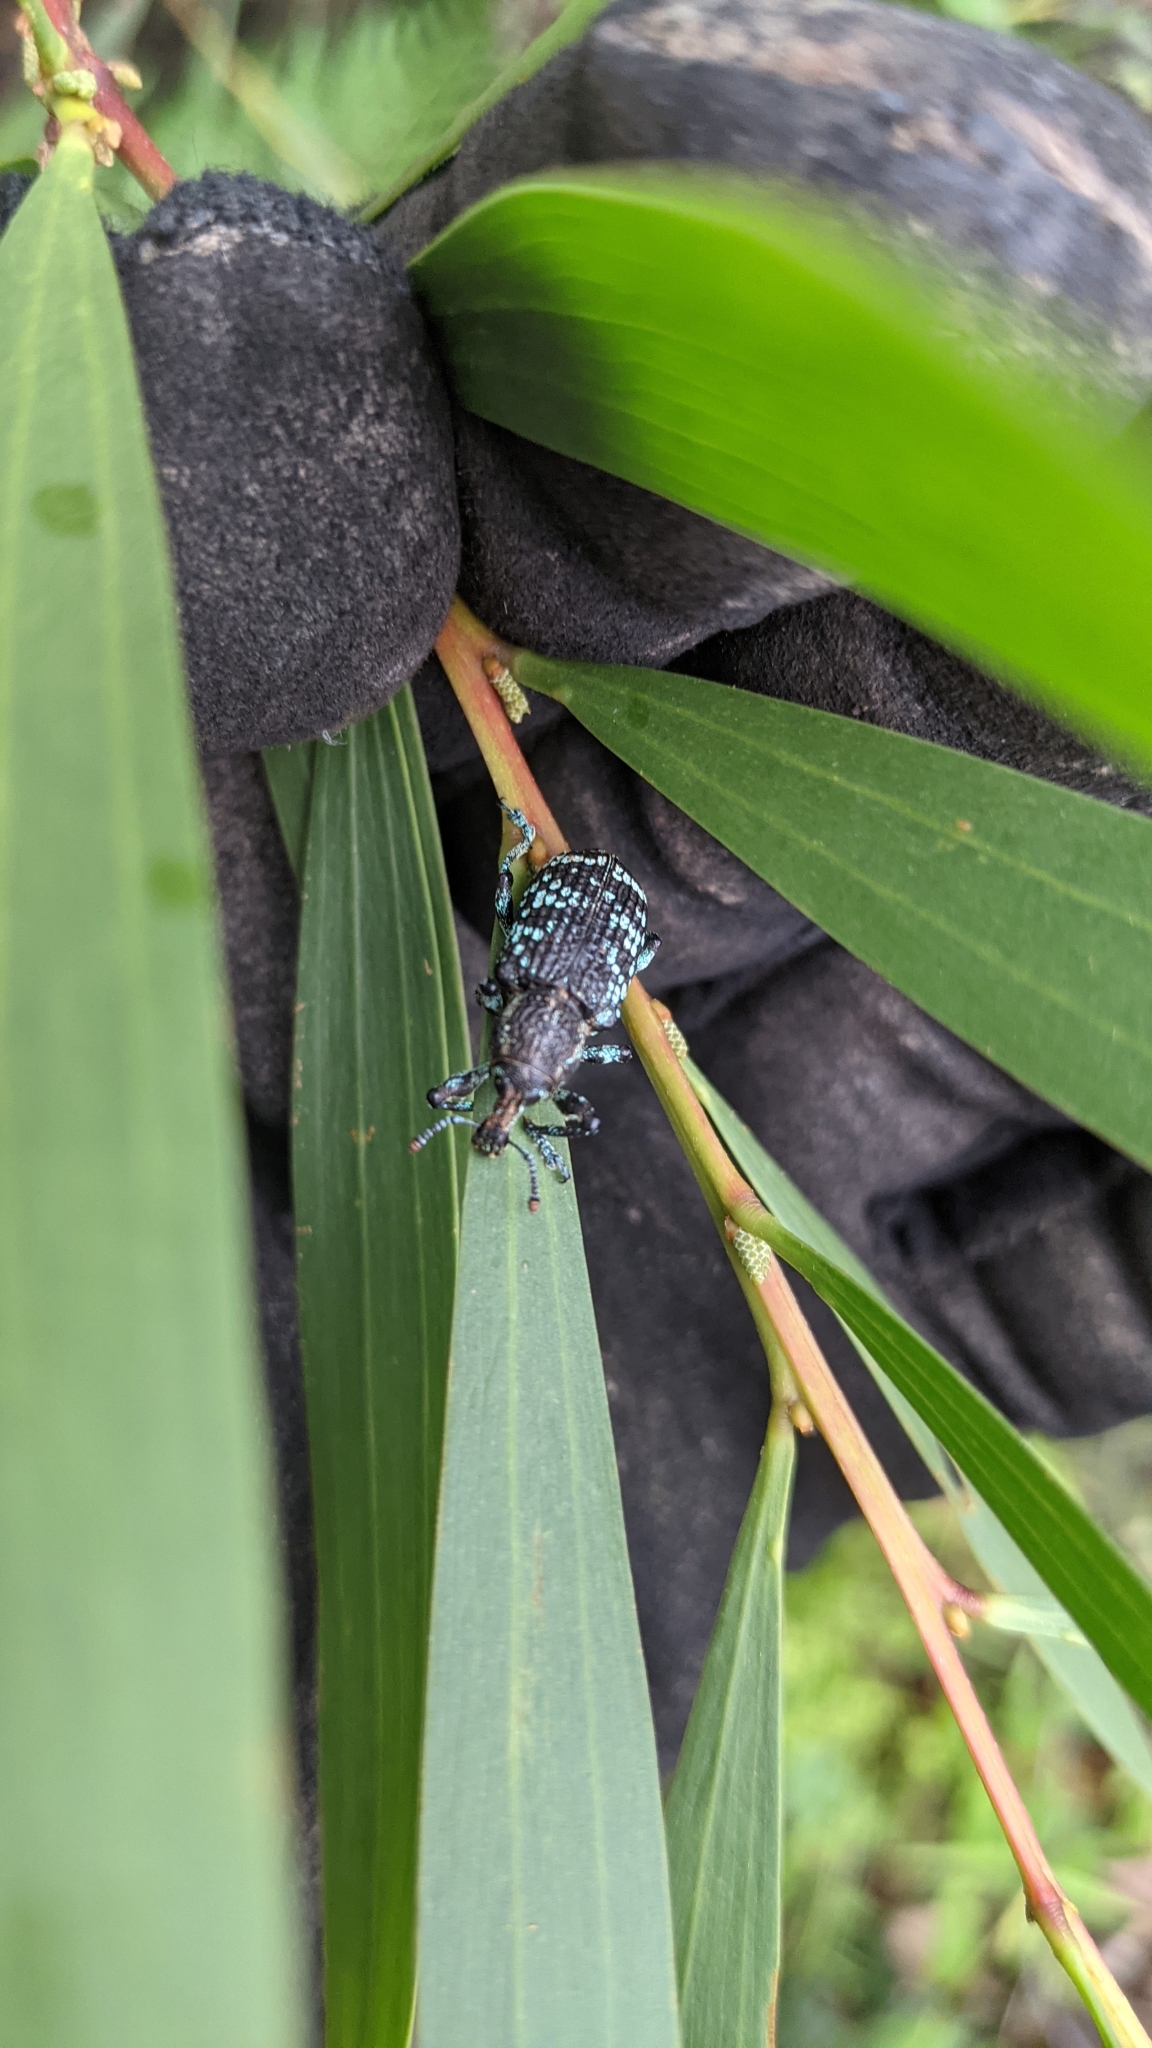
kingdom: Animalia
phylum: Arthropoda
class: Insecta
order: Coleoptera
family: Curculionidae
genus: Chrysolopus
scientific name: Chrysolopus spectabilis
